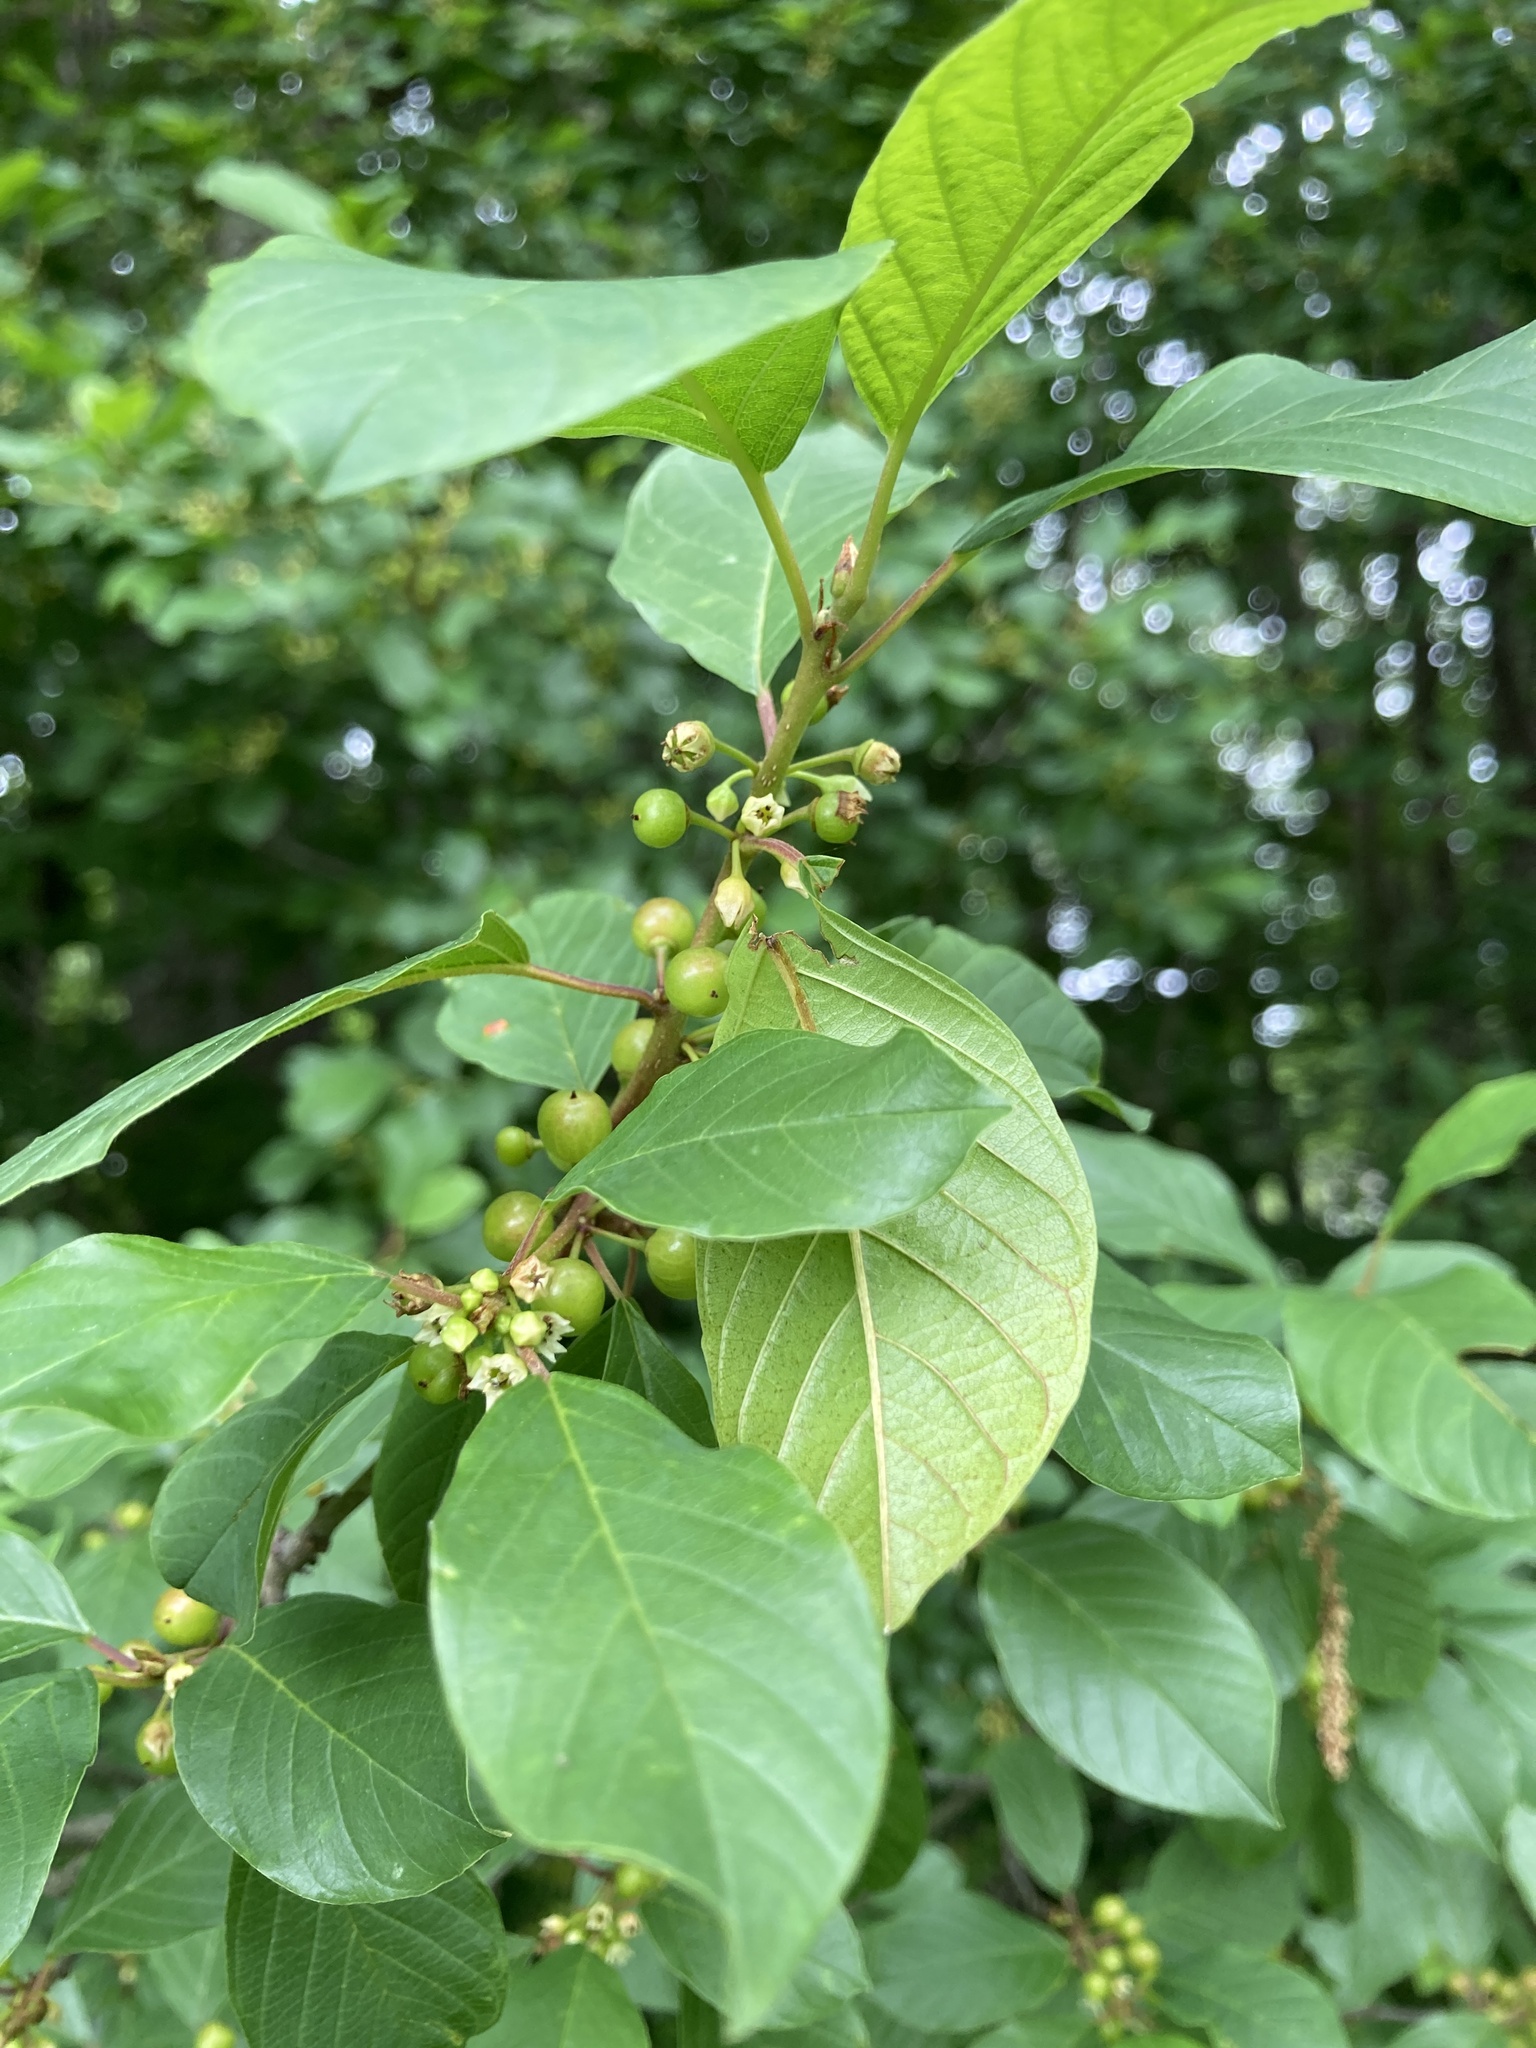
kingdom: Plantae
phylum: Tracheophyta
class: Magnoliopsida
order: Rosales
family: Rhamnaceae
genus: Frangula
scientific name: Frangula alnus
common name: Alder buckthorn
